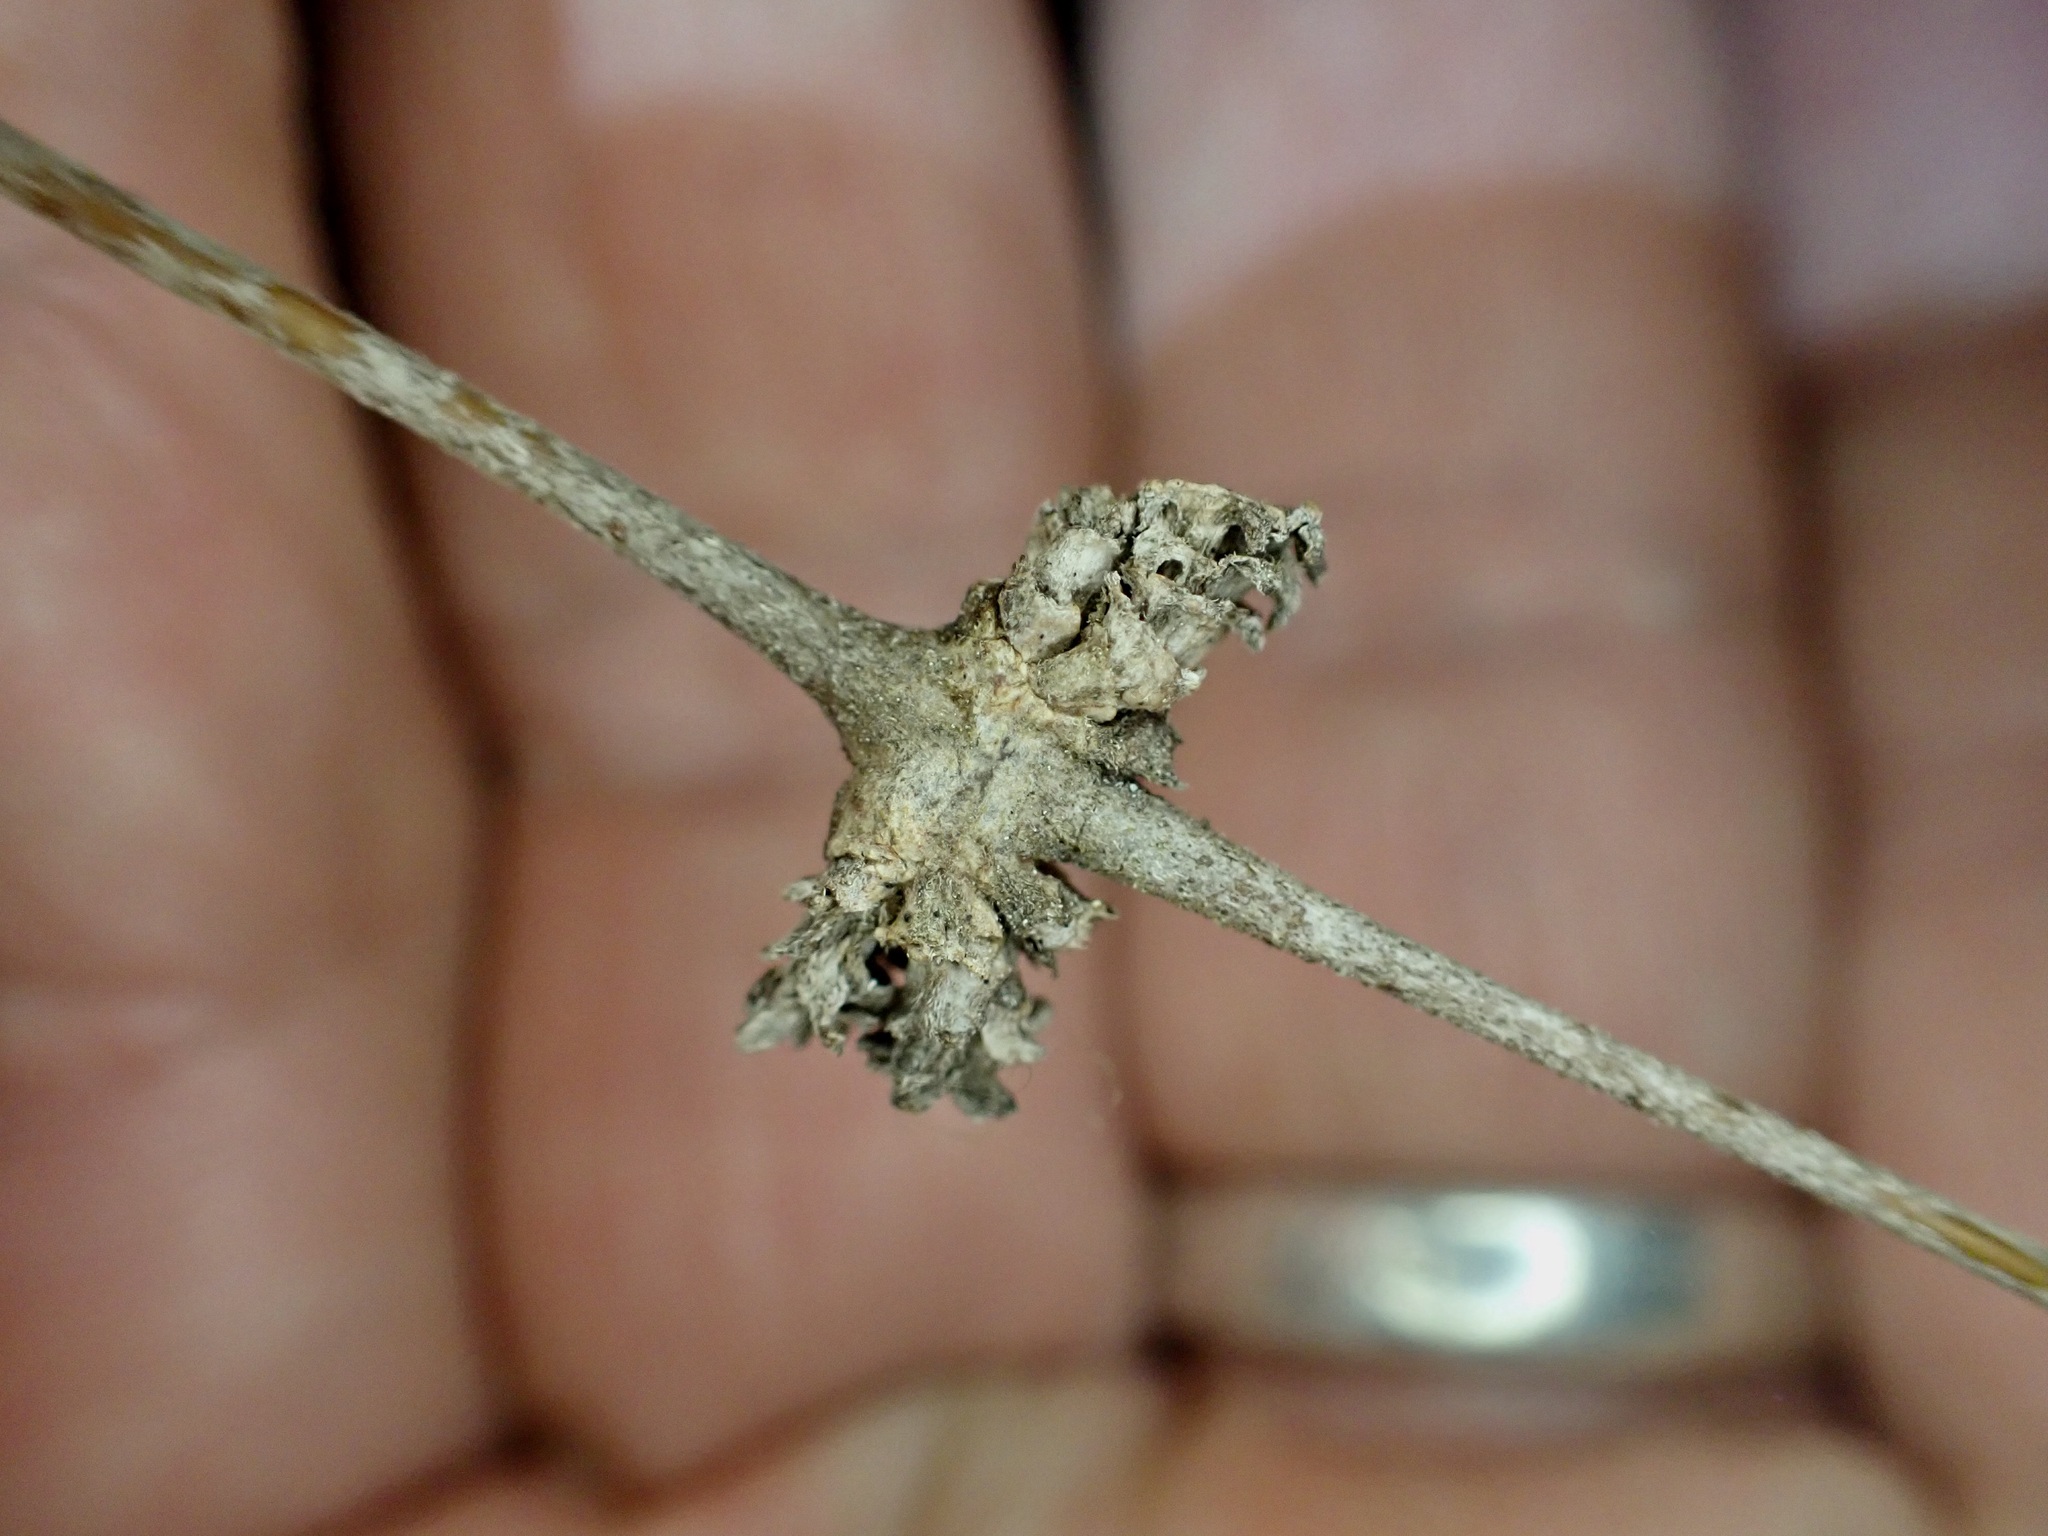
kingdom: Plantae
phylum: Tracheophyta
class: Magnoliopsida
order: Gentianales
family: Rubiaceae
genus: Coprosma
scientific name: Coprosma crassifolia
